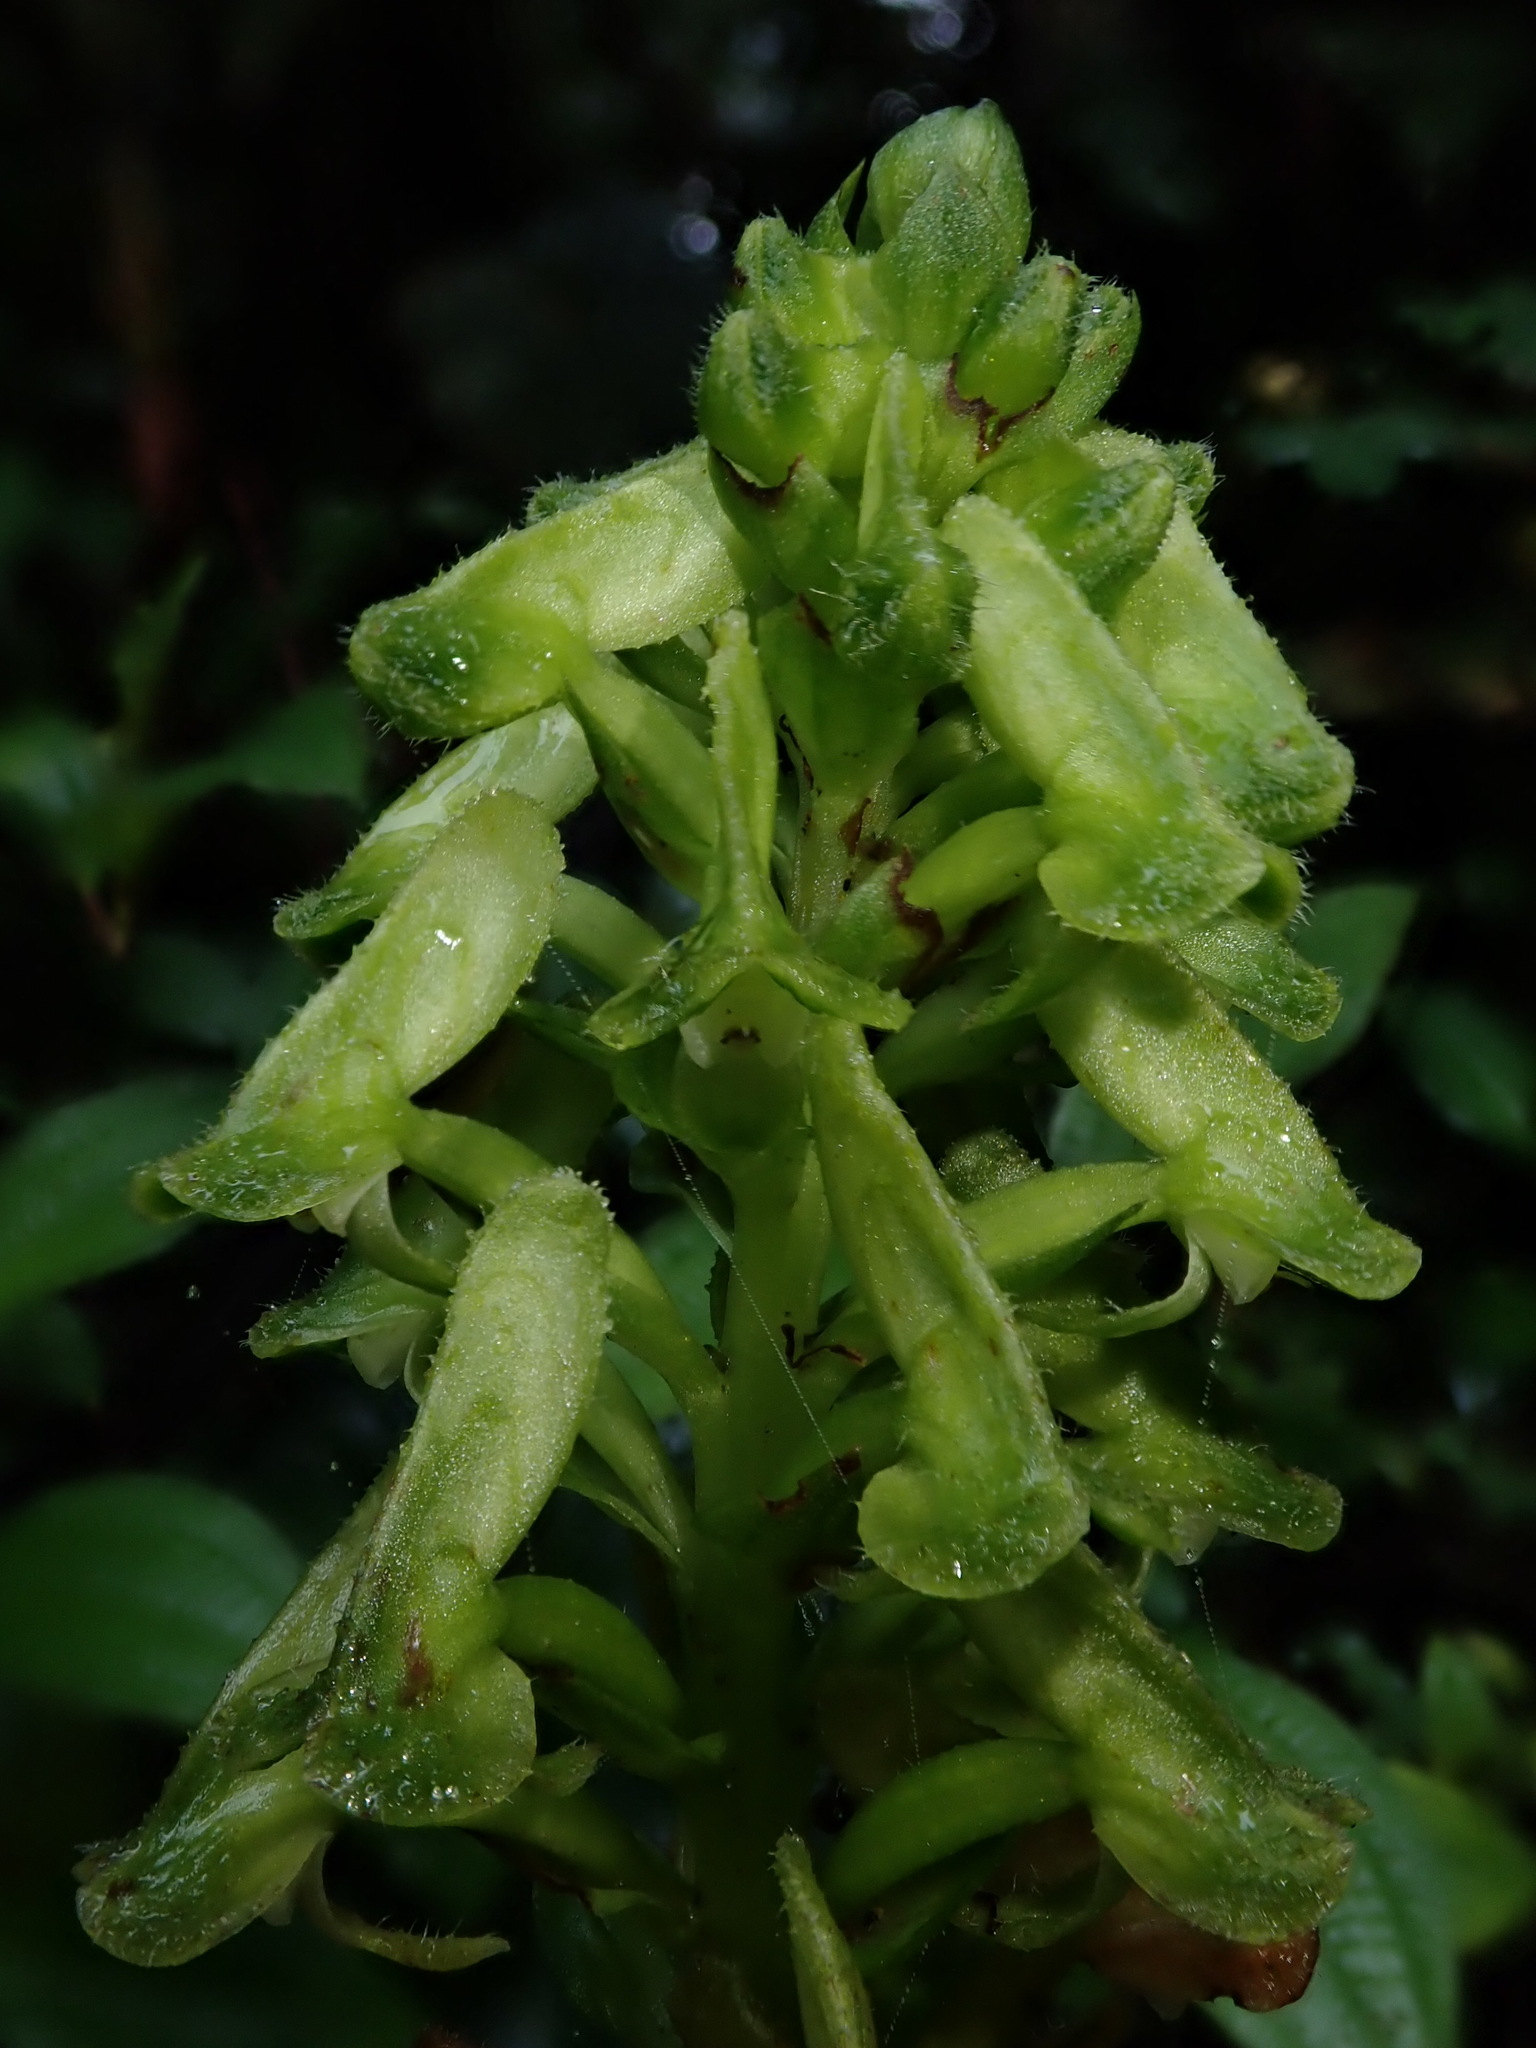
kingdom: Plantae
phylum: Tracheophyta
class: Liliopsida
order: Asparagales
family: Orchidaceae
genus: Pseudocentrum
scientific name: Pseudocentrum bursarium
